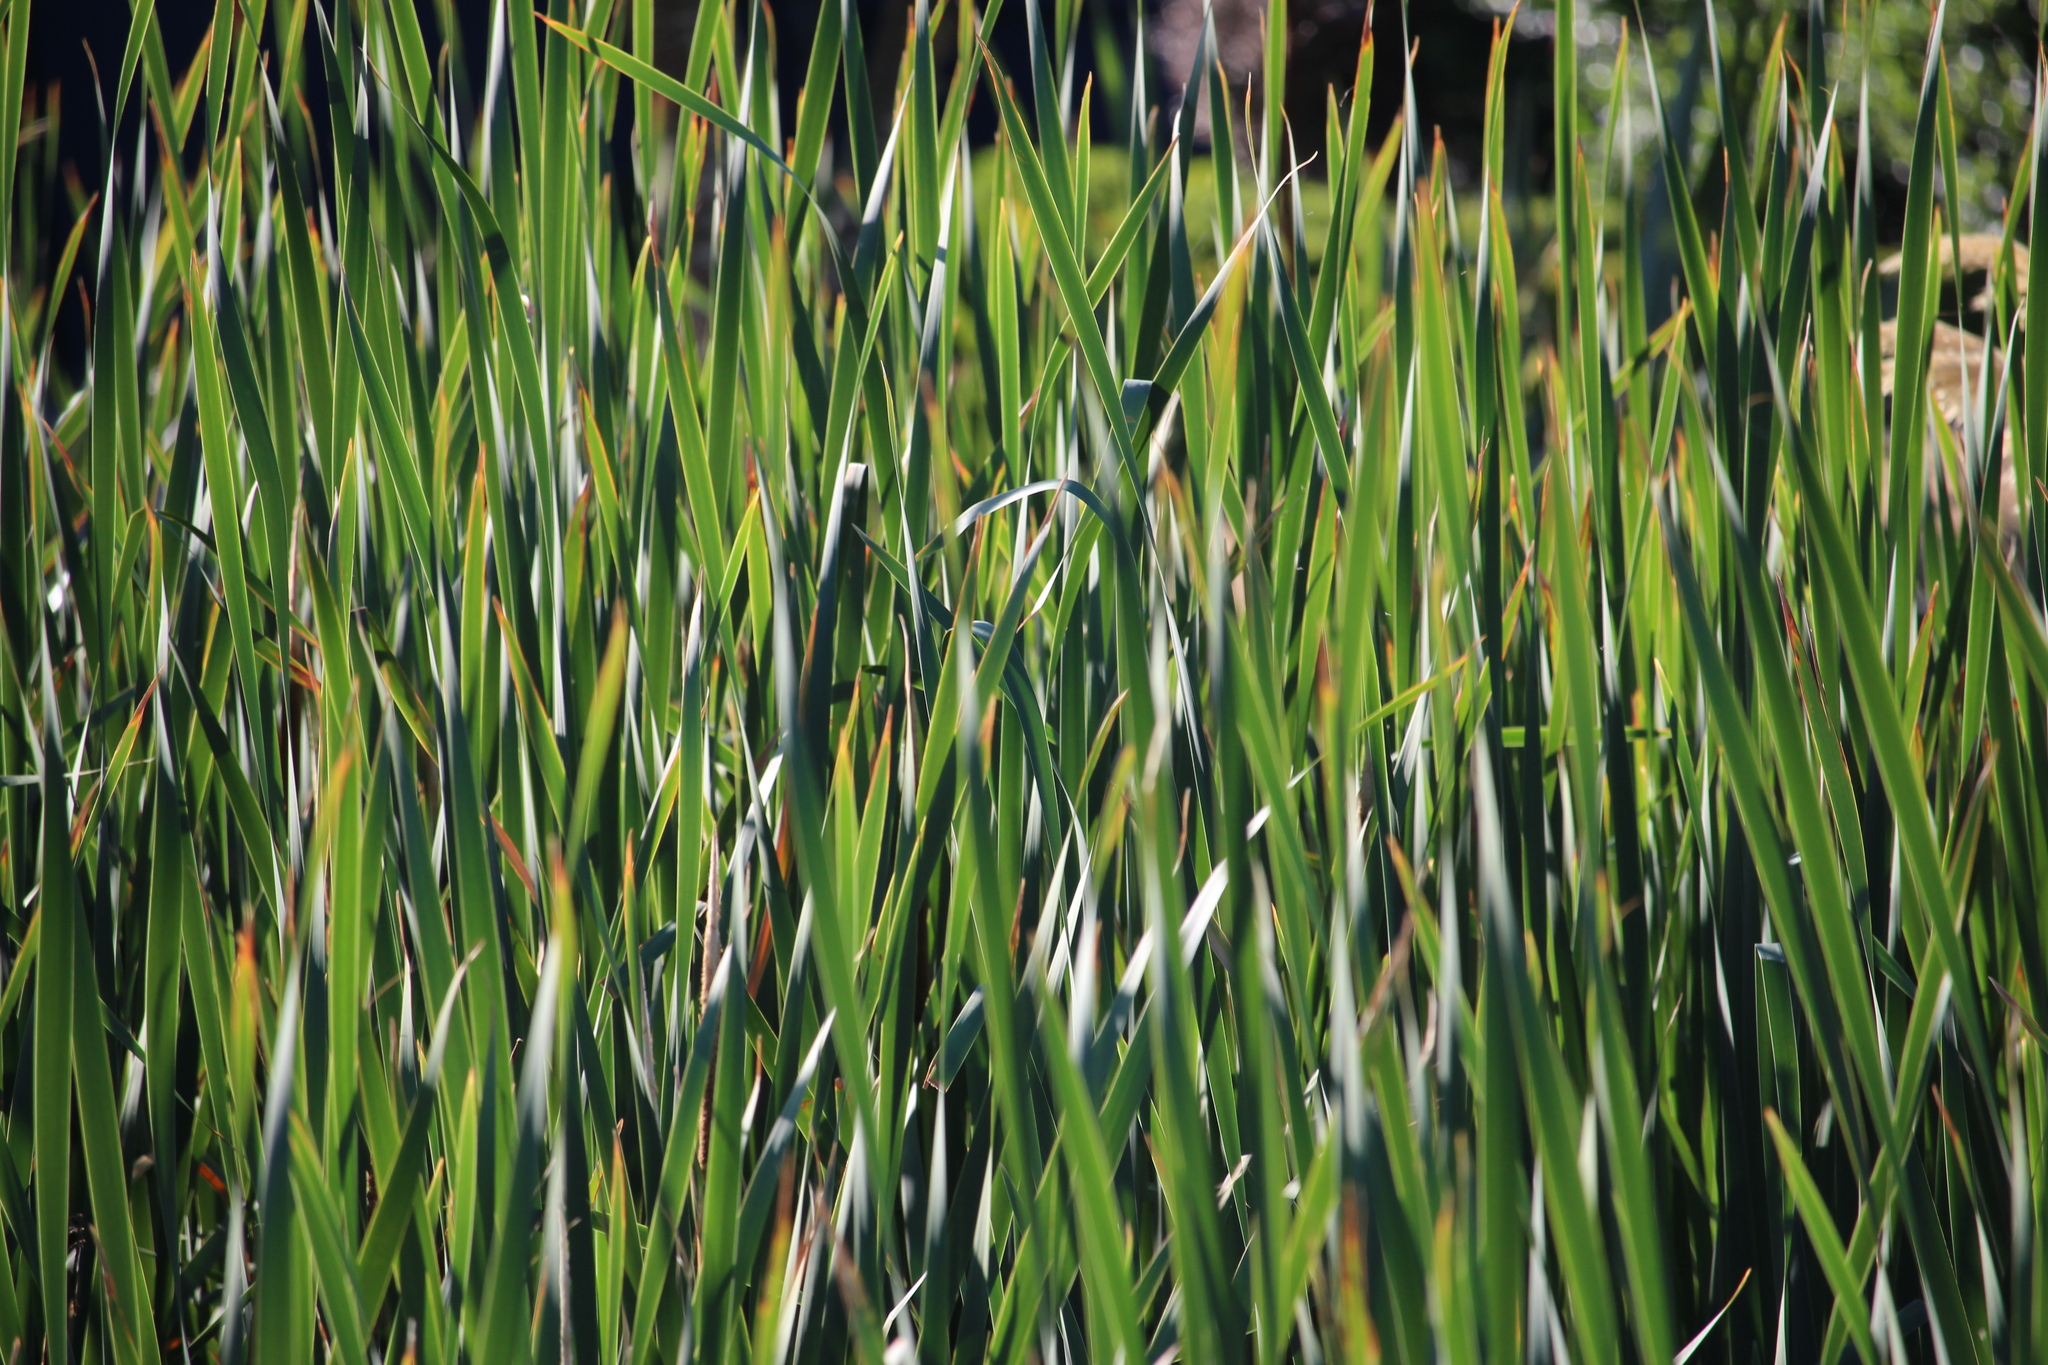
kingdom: Plantae
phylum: Tracheophyta
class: Liliopsida
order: Poales
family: Typhaceae
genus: Typha
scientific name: Typha orientalis
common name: Bullrush
